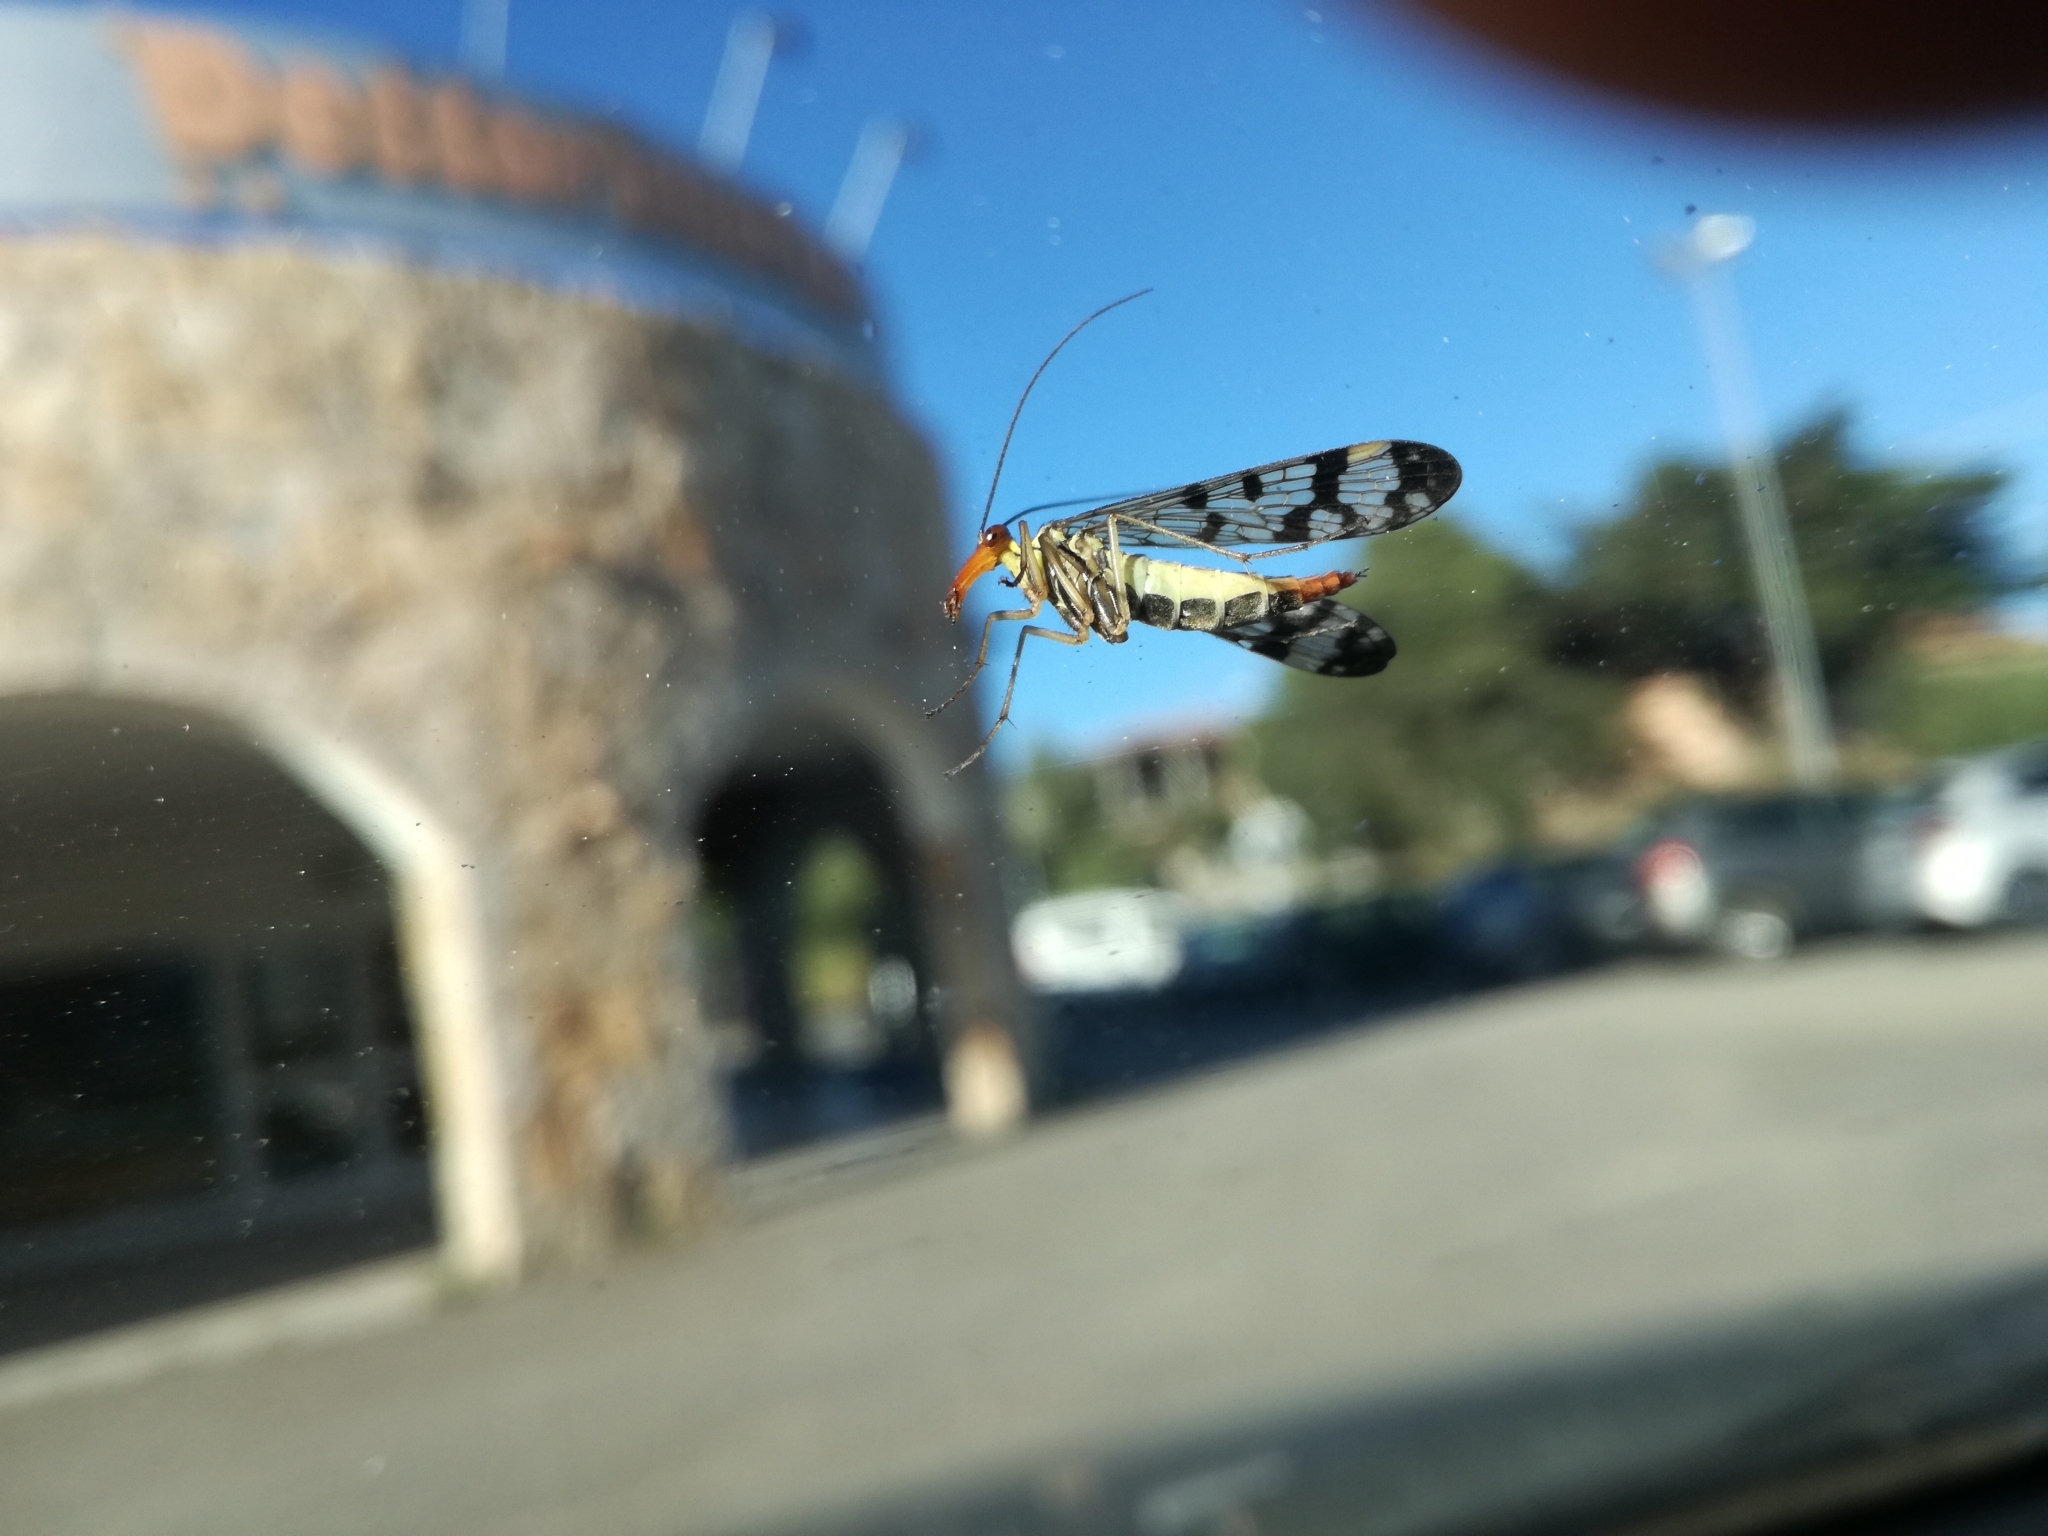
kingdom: Animalia
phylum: Arthropoda
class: Insecta
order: Mecoptera
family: Panorpidae
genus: Panorpa
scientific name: Panorpa annexa
